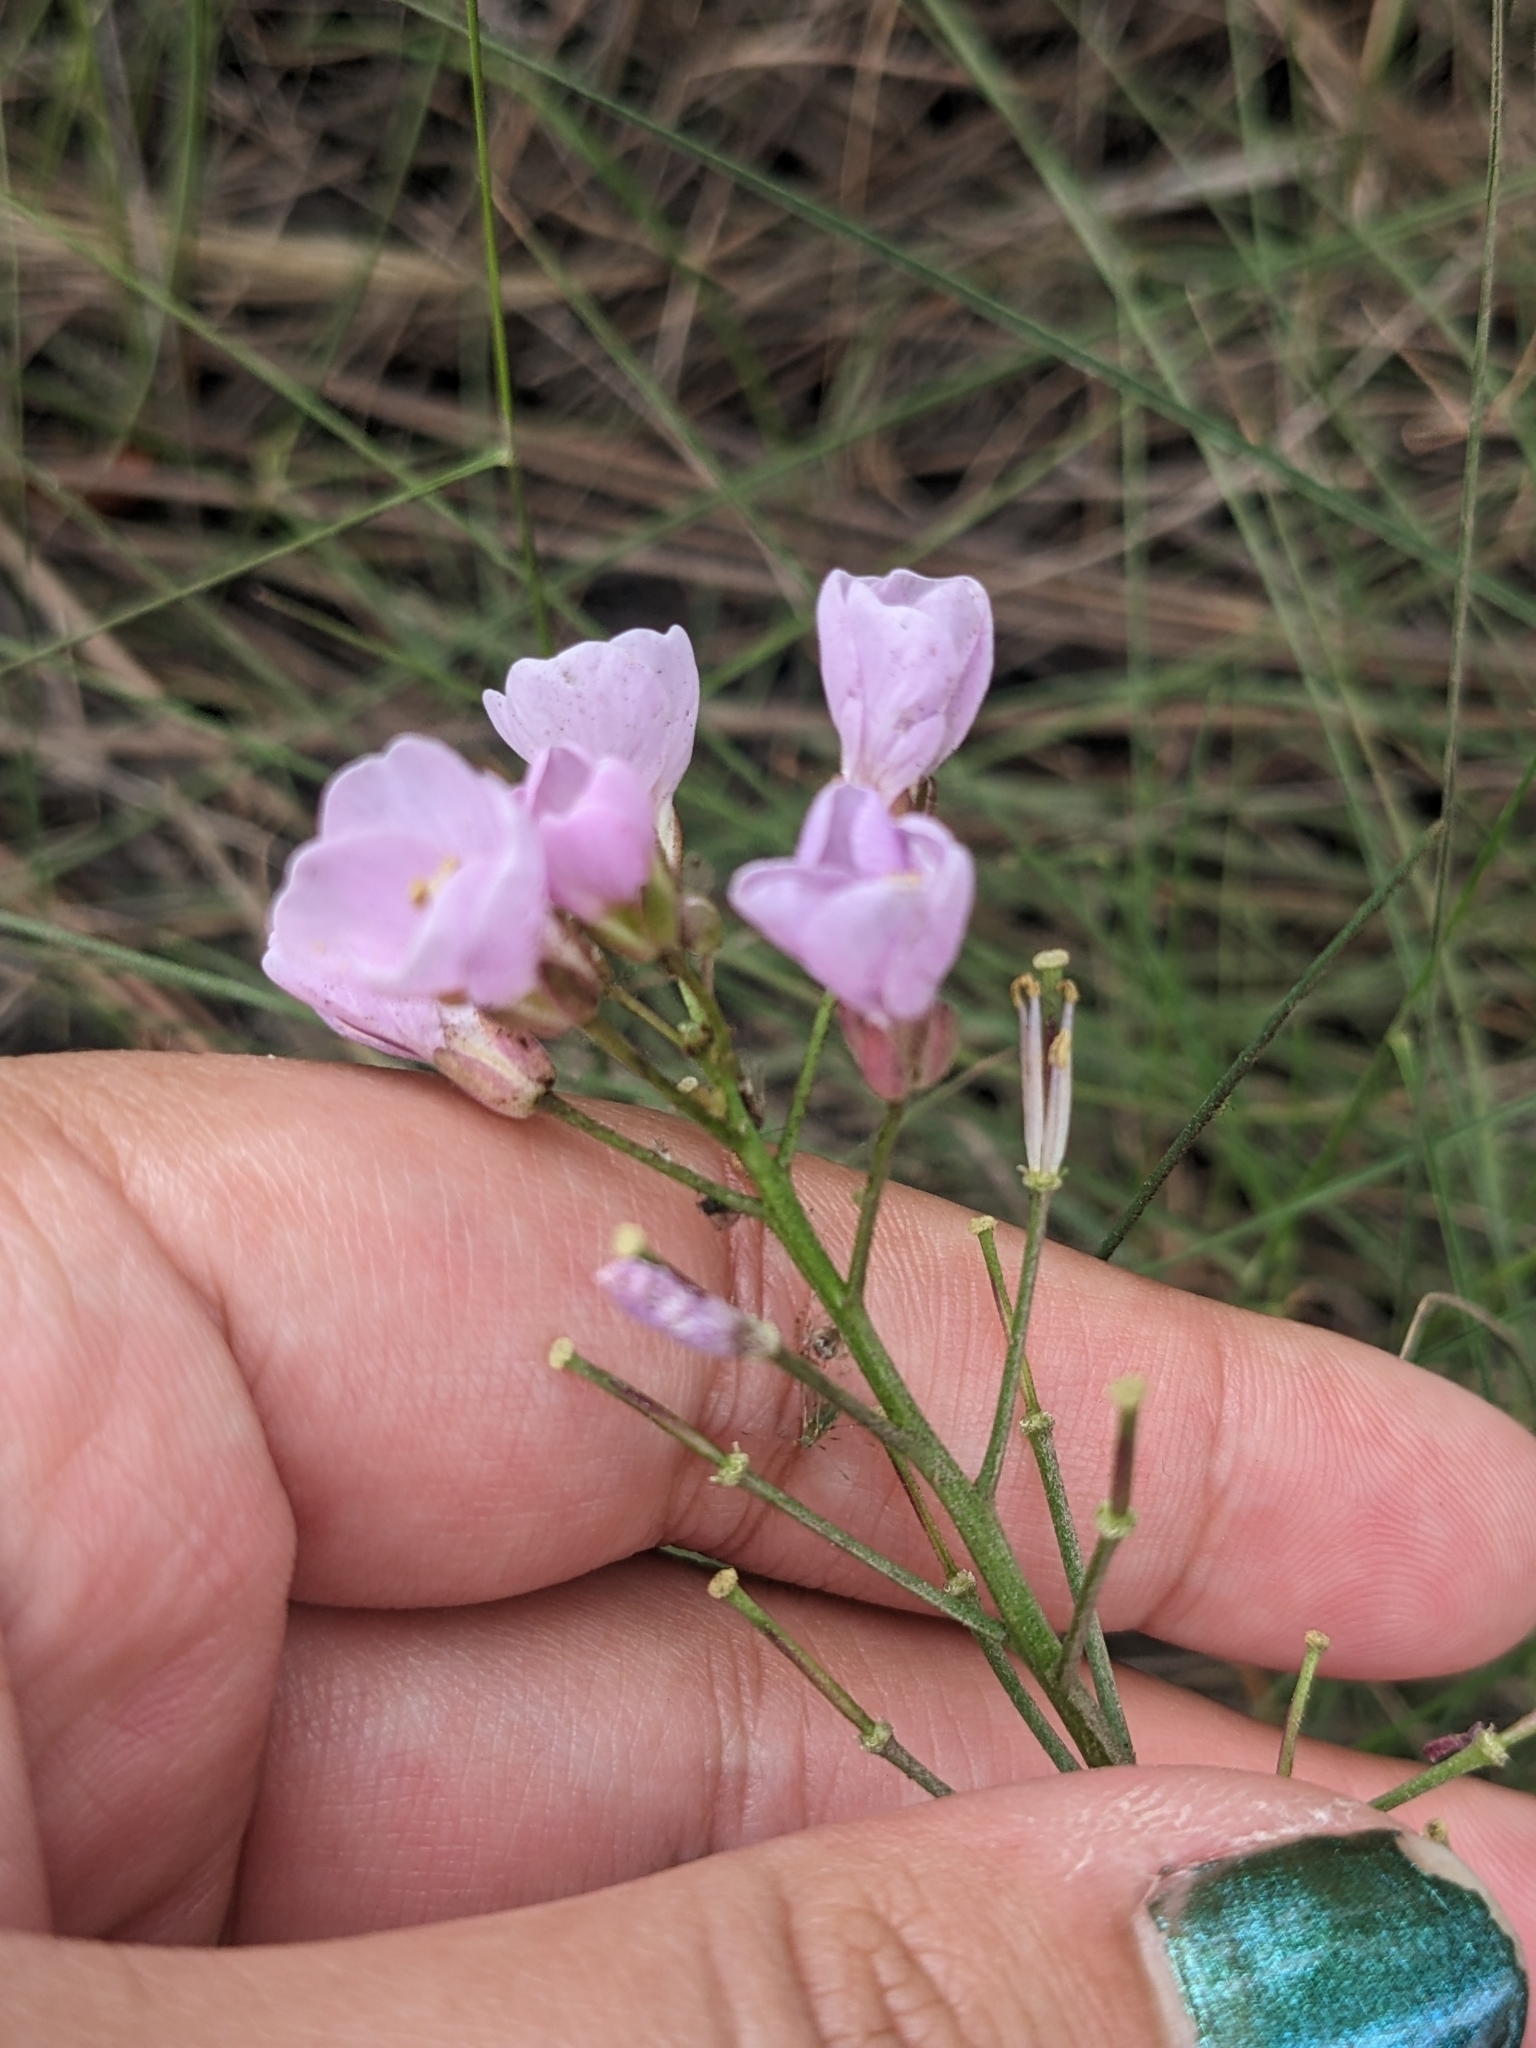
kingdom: Plantae
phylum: Tracheophyta
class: Magnoliopsida
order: Brassicales
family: Brassicaceae
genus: Cardamine
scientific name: Cardamine californica
